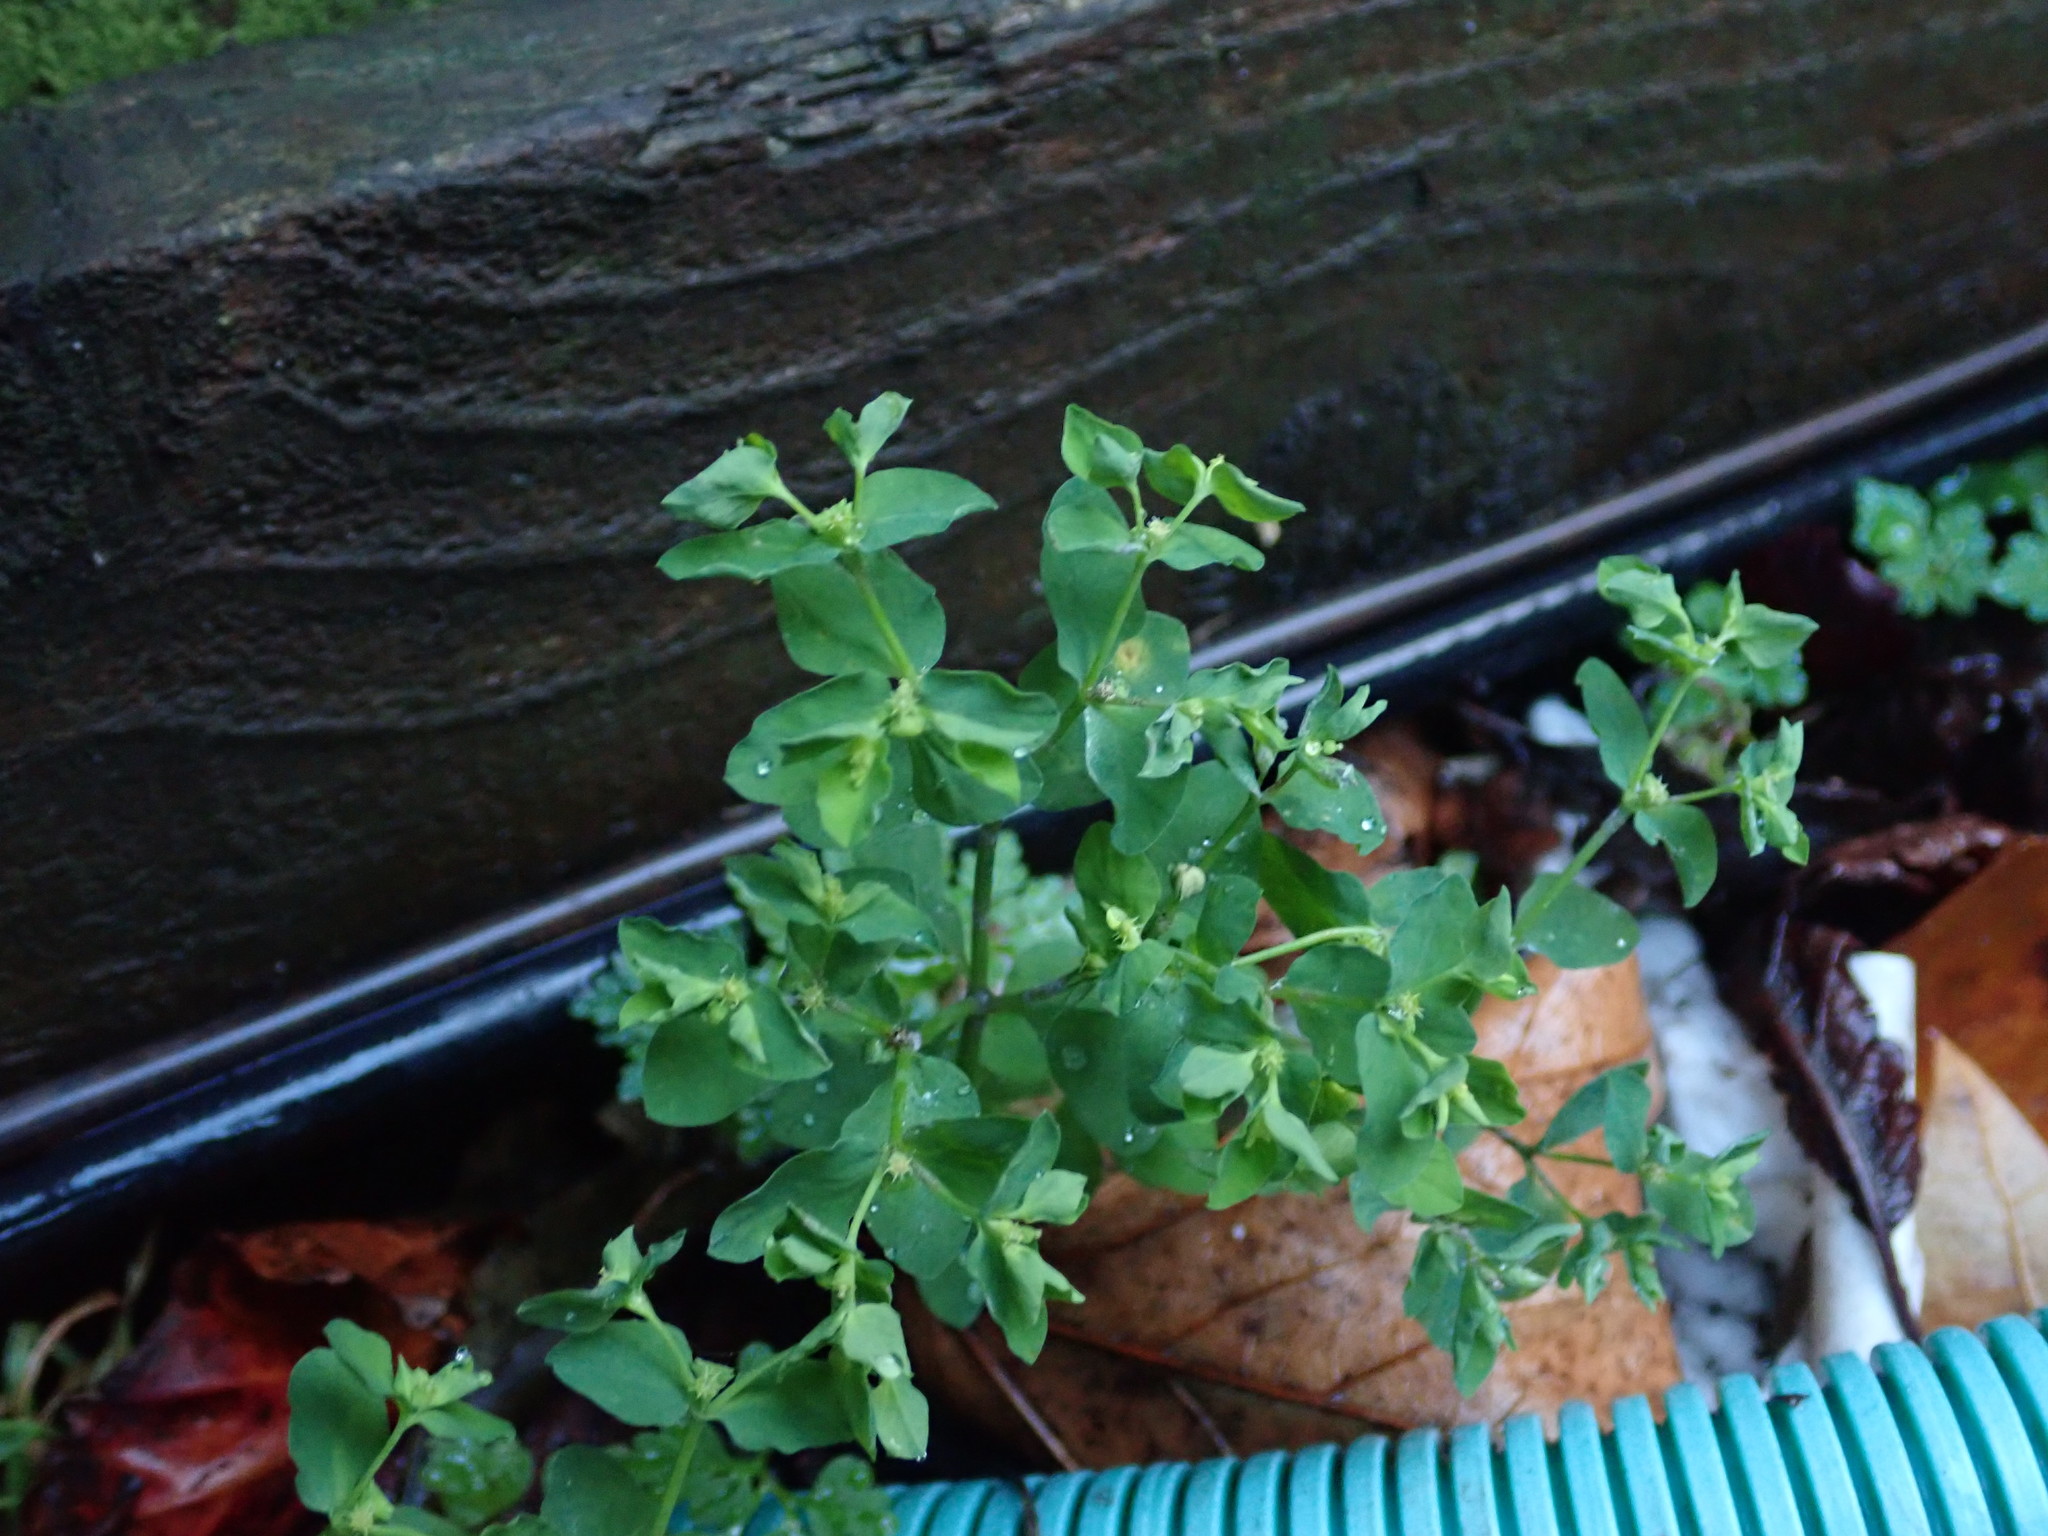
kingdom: Plantae
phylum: Tracheophyta
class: Magnoliopsida
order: Malpighiales
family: Euphorbiaceae
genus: Euphorbia
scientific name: Euphorbia peplus
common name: Petty spurge
